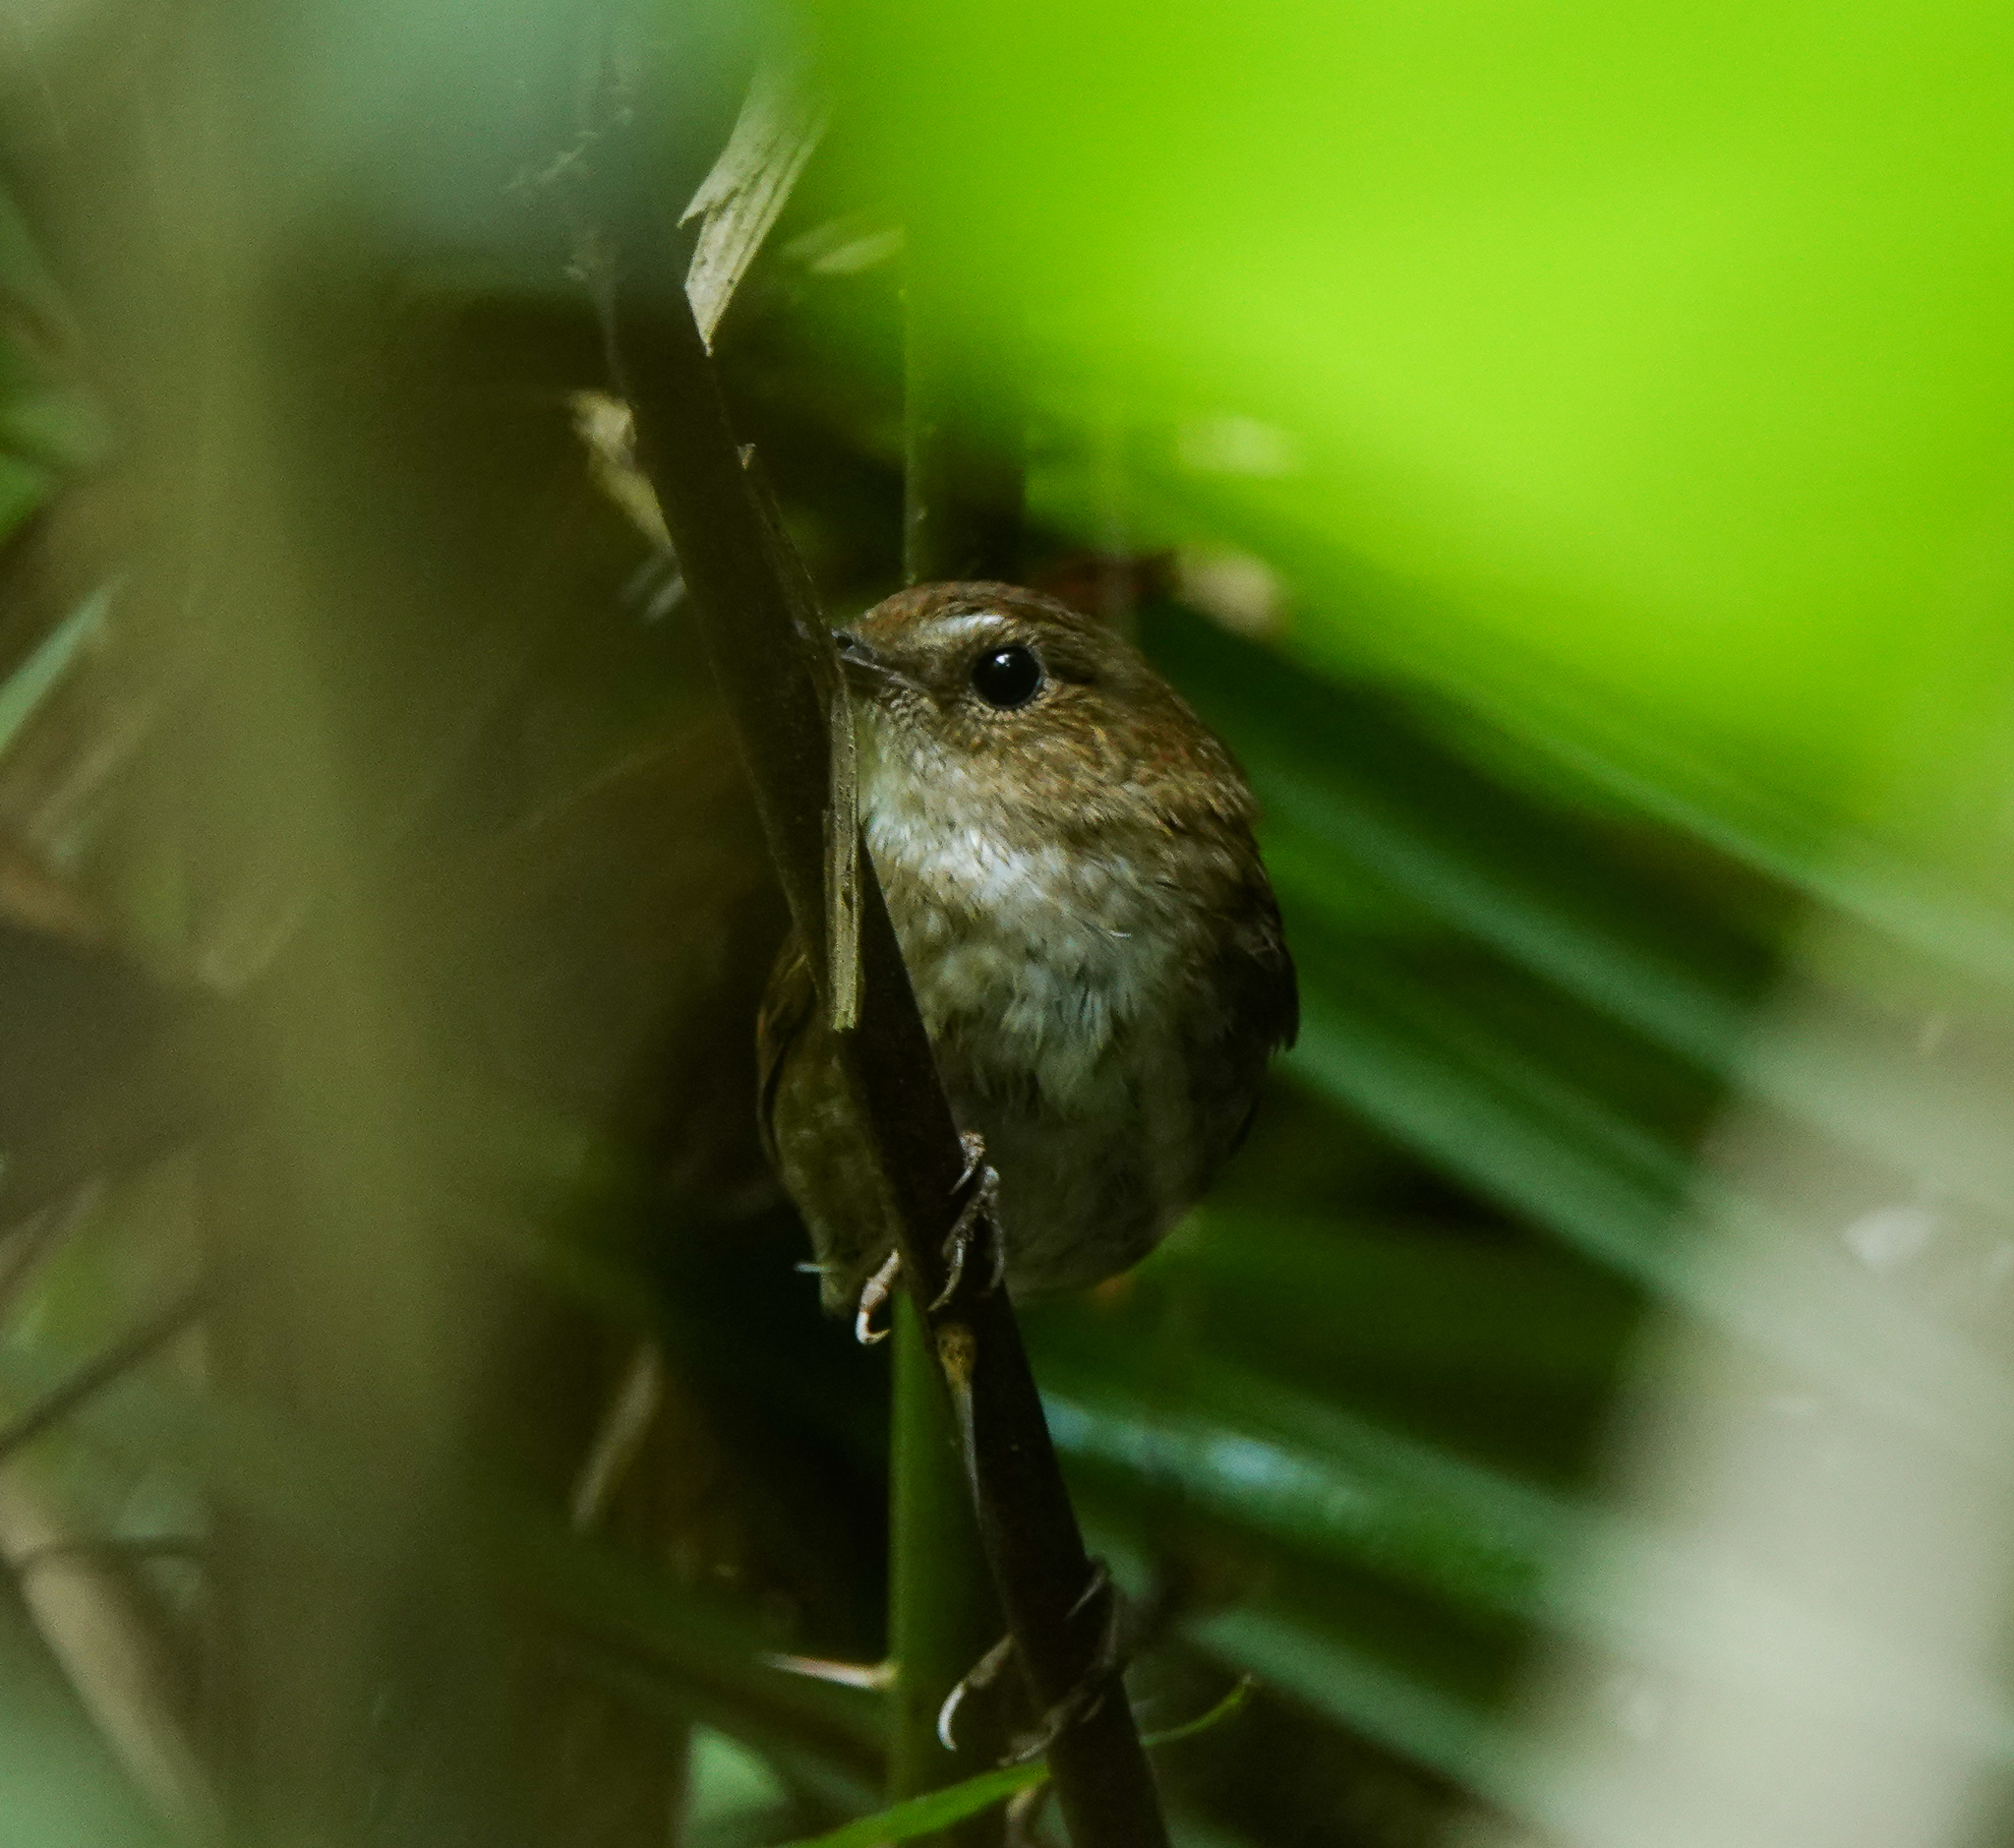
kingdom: Animalia
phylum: Chordata
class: Aves
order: Passeriformes
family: Muscicapidae
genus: Brachypteryx
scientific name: Brachypteryx leucophris
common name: Lesser shortwing
